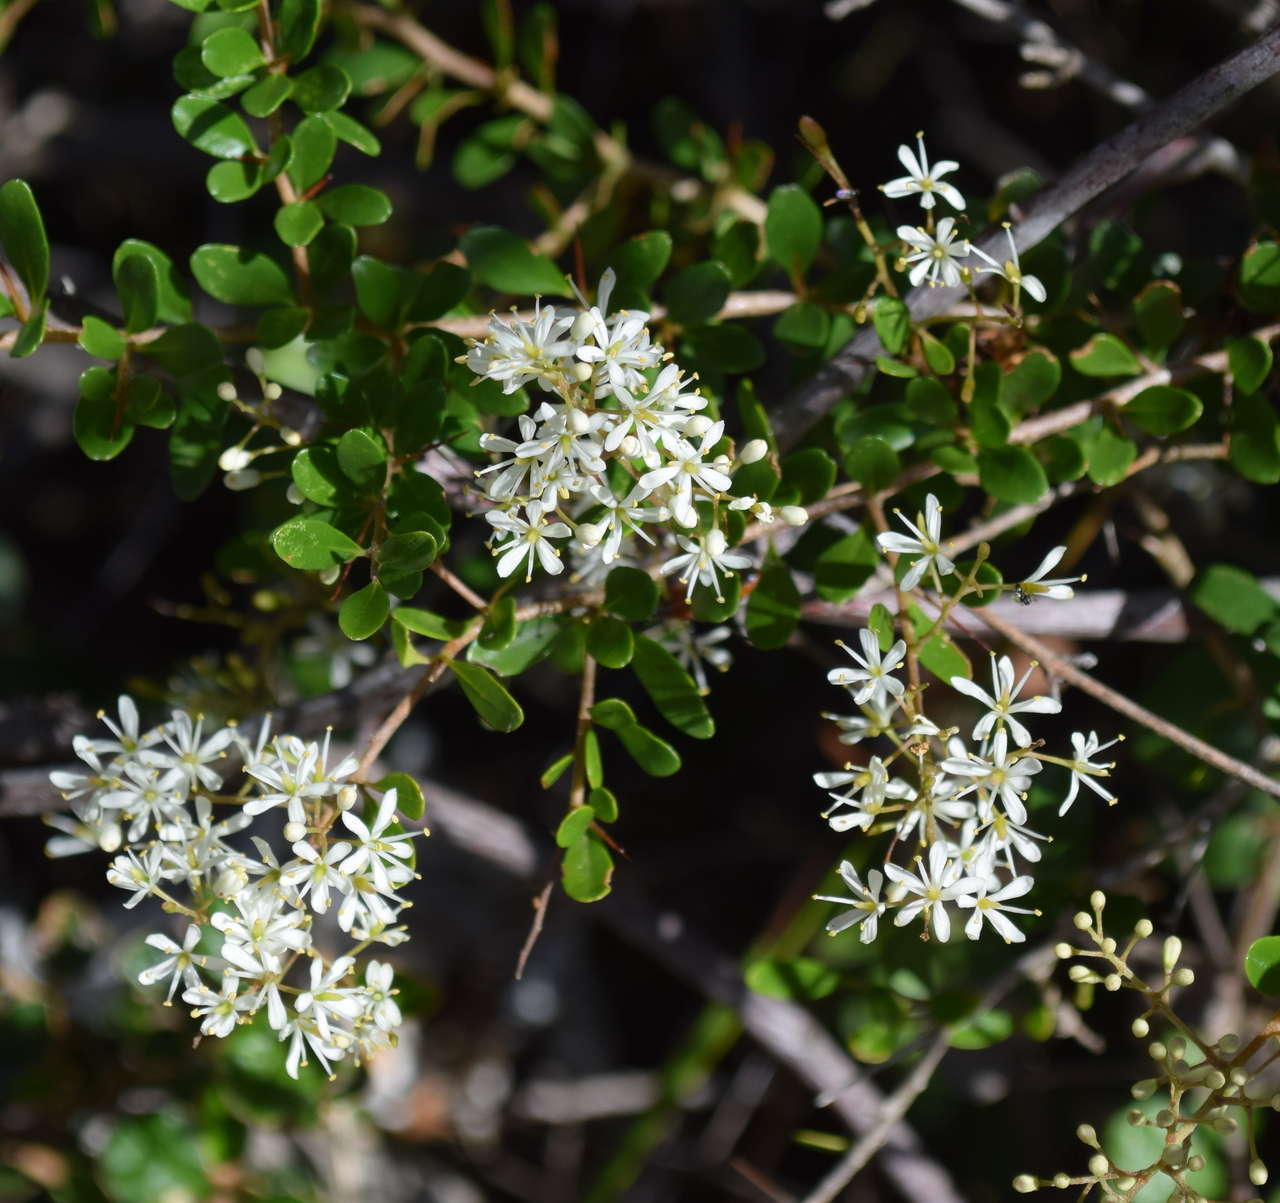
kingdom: Plantae
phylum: Tracheophyta
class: Magnoliopsida
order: Apiales
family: Pittosporaceae
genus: Bursaria
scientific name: Bursaria spinosa
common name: Australian blackthorn
